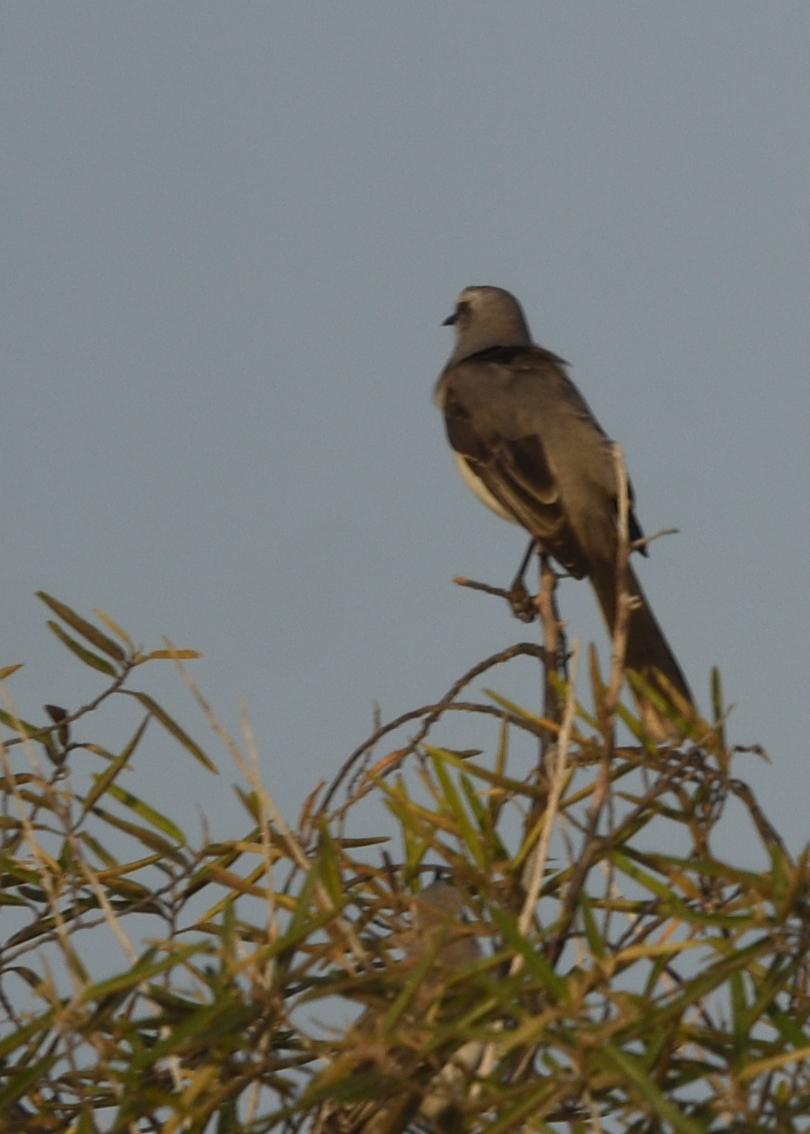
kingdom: Animalia
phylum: Chordata
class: Aves
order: Passeriformes
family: Mimidae
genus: Mimus
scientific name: Mimus gilvus
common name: Tropical mockingbird
